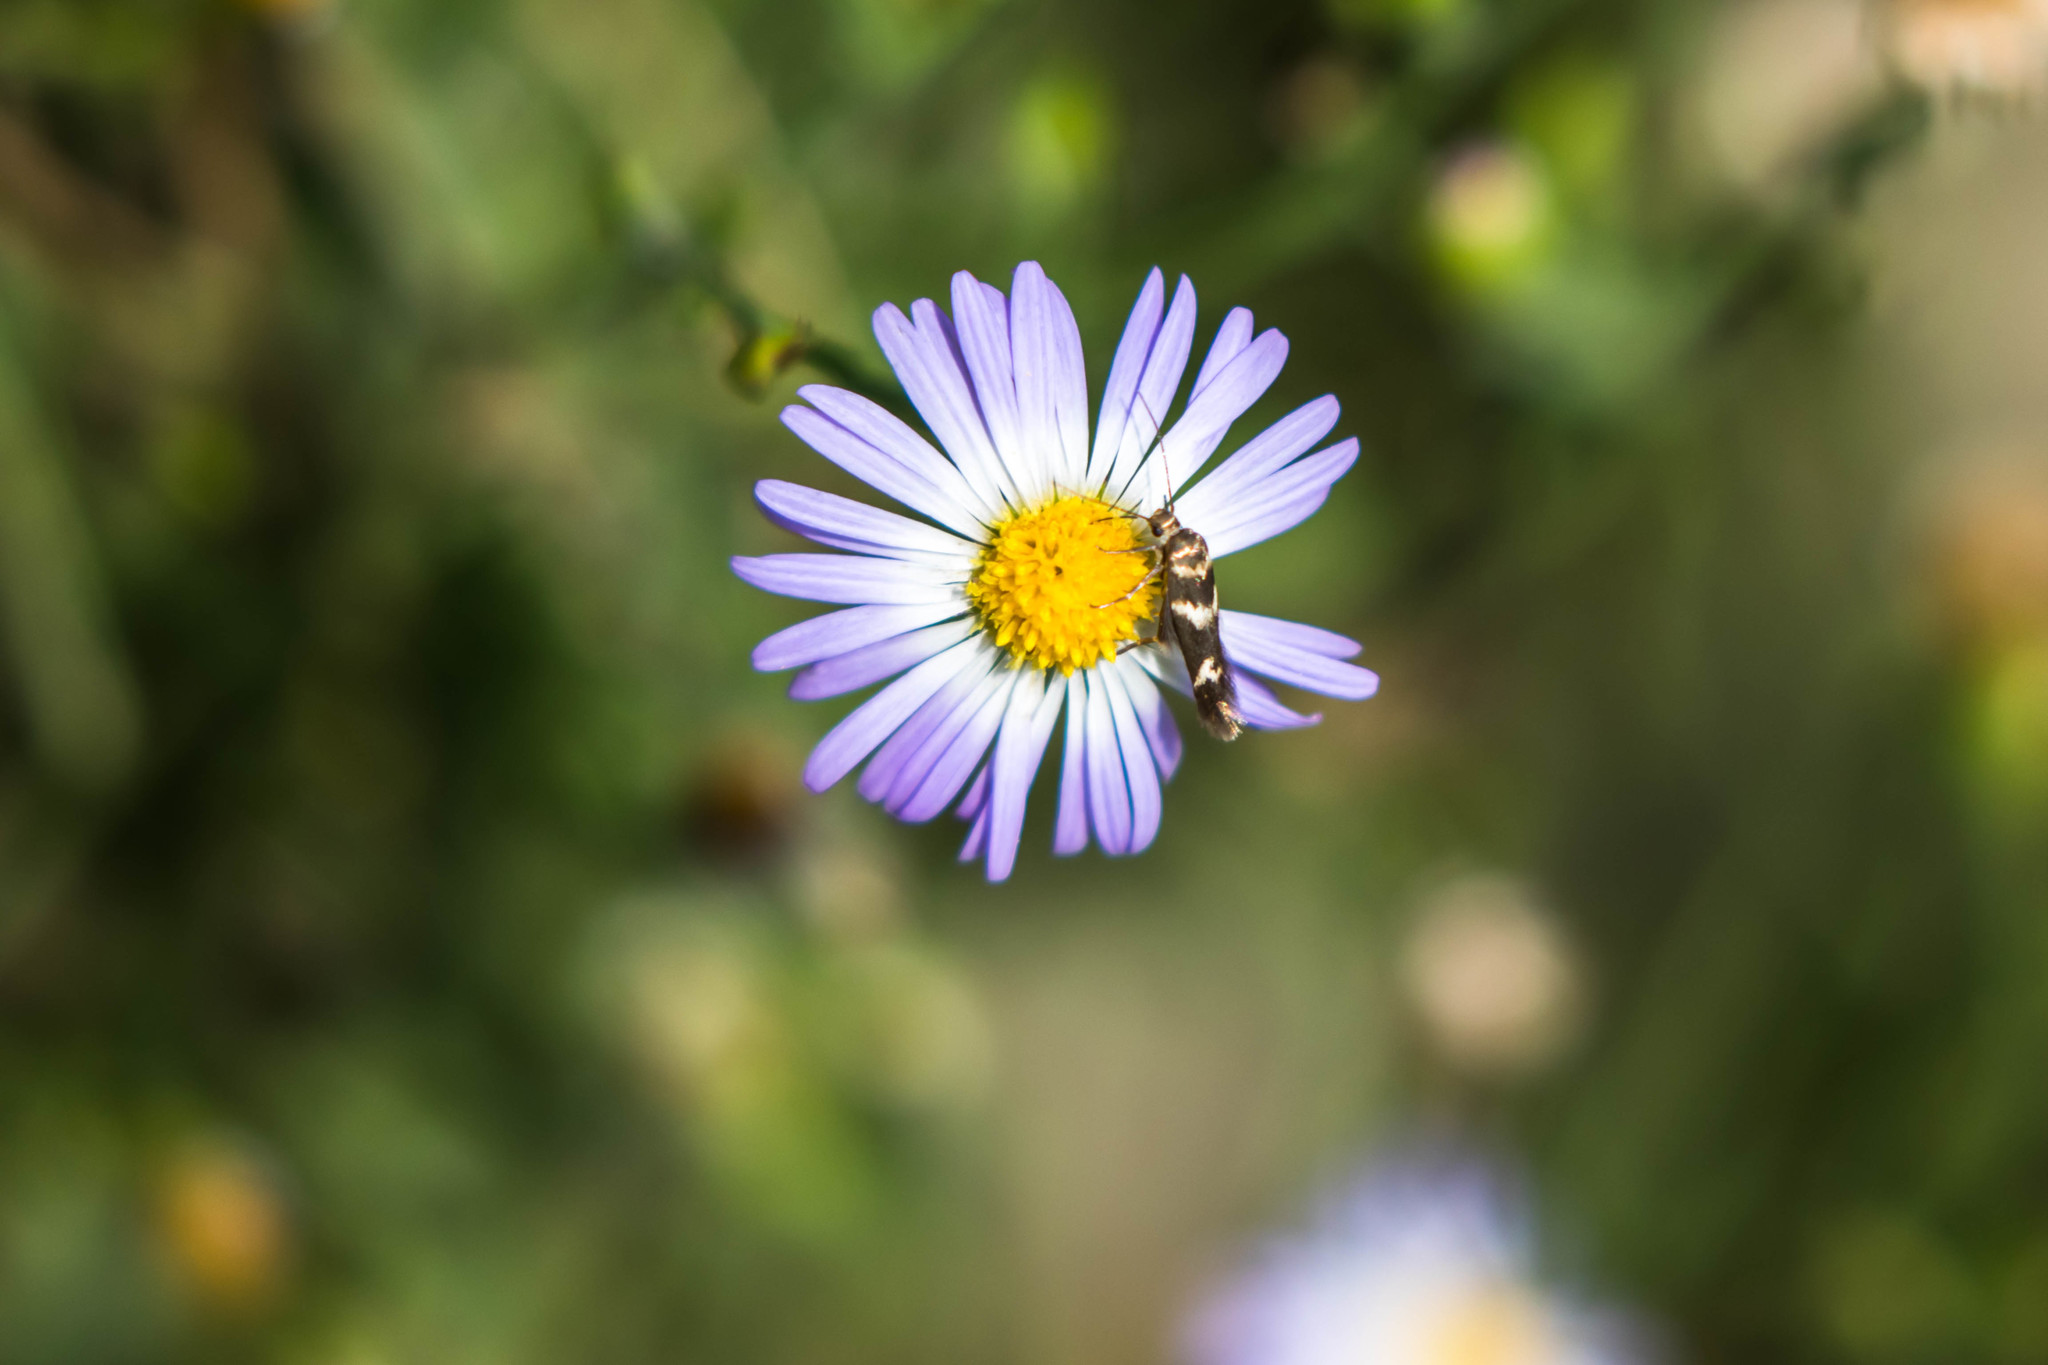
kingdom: Animalia
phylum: Arthropoda
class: Insecta
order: Lepidoptera
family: Scythrididae
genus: Scythris
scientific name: Scythris trivinctella
